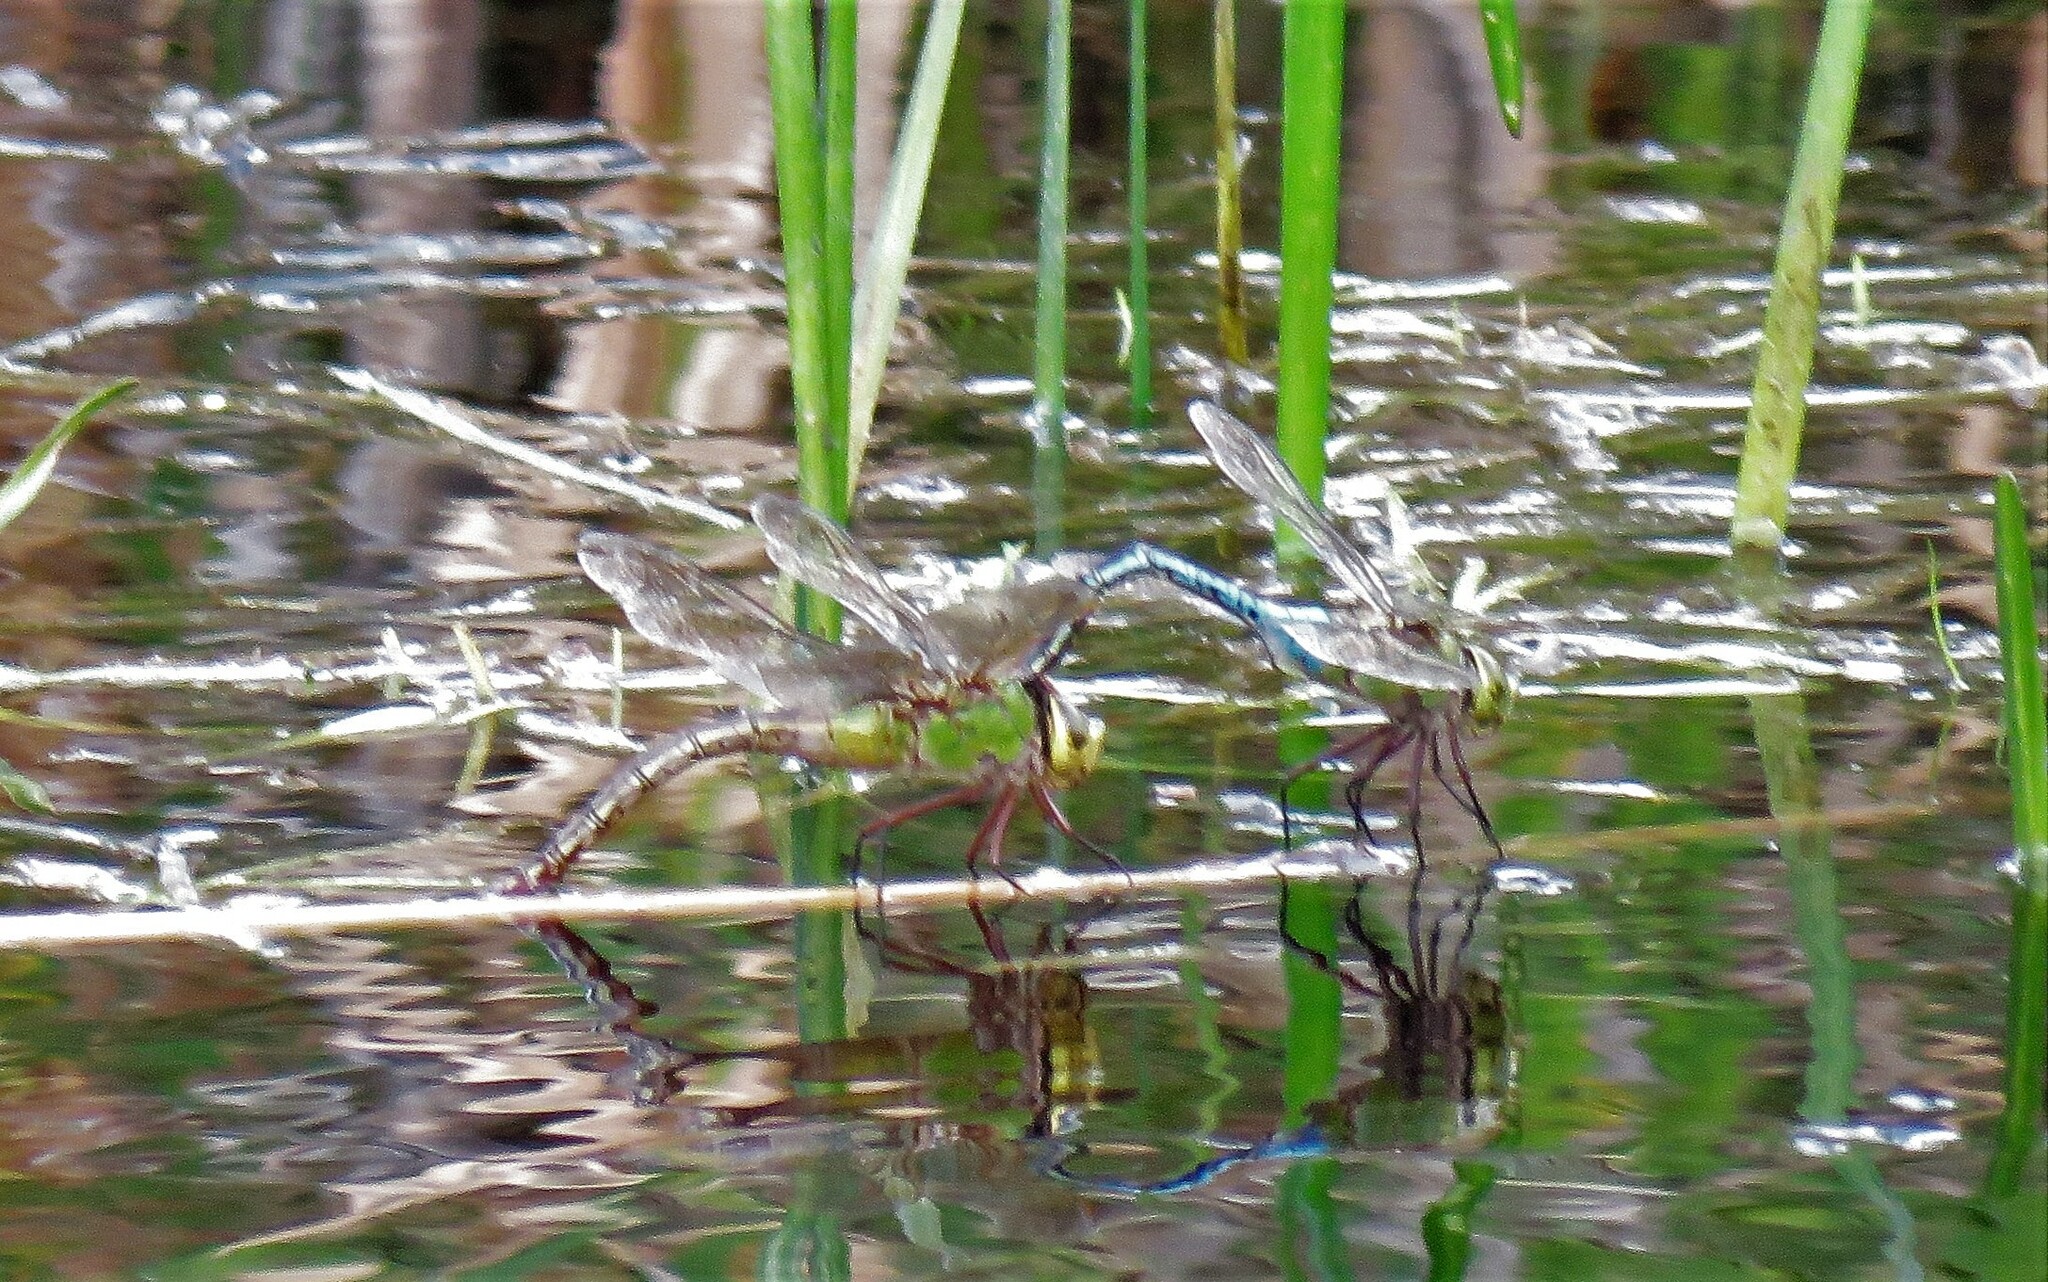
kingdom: Animalia
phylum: Arthropoda
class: Insecta
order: Odonata
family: Aeshnidae
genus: Anax
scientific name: Anax junius
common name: Common green darner
